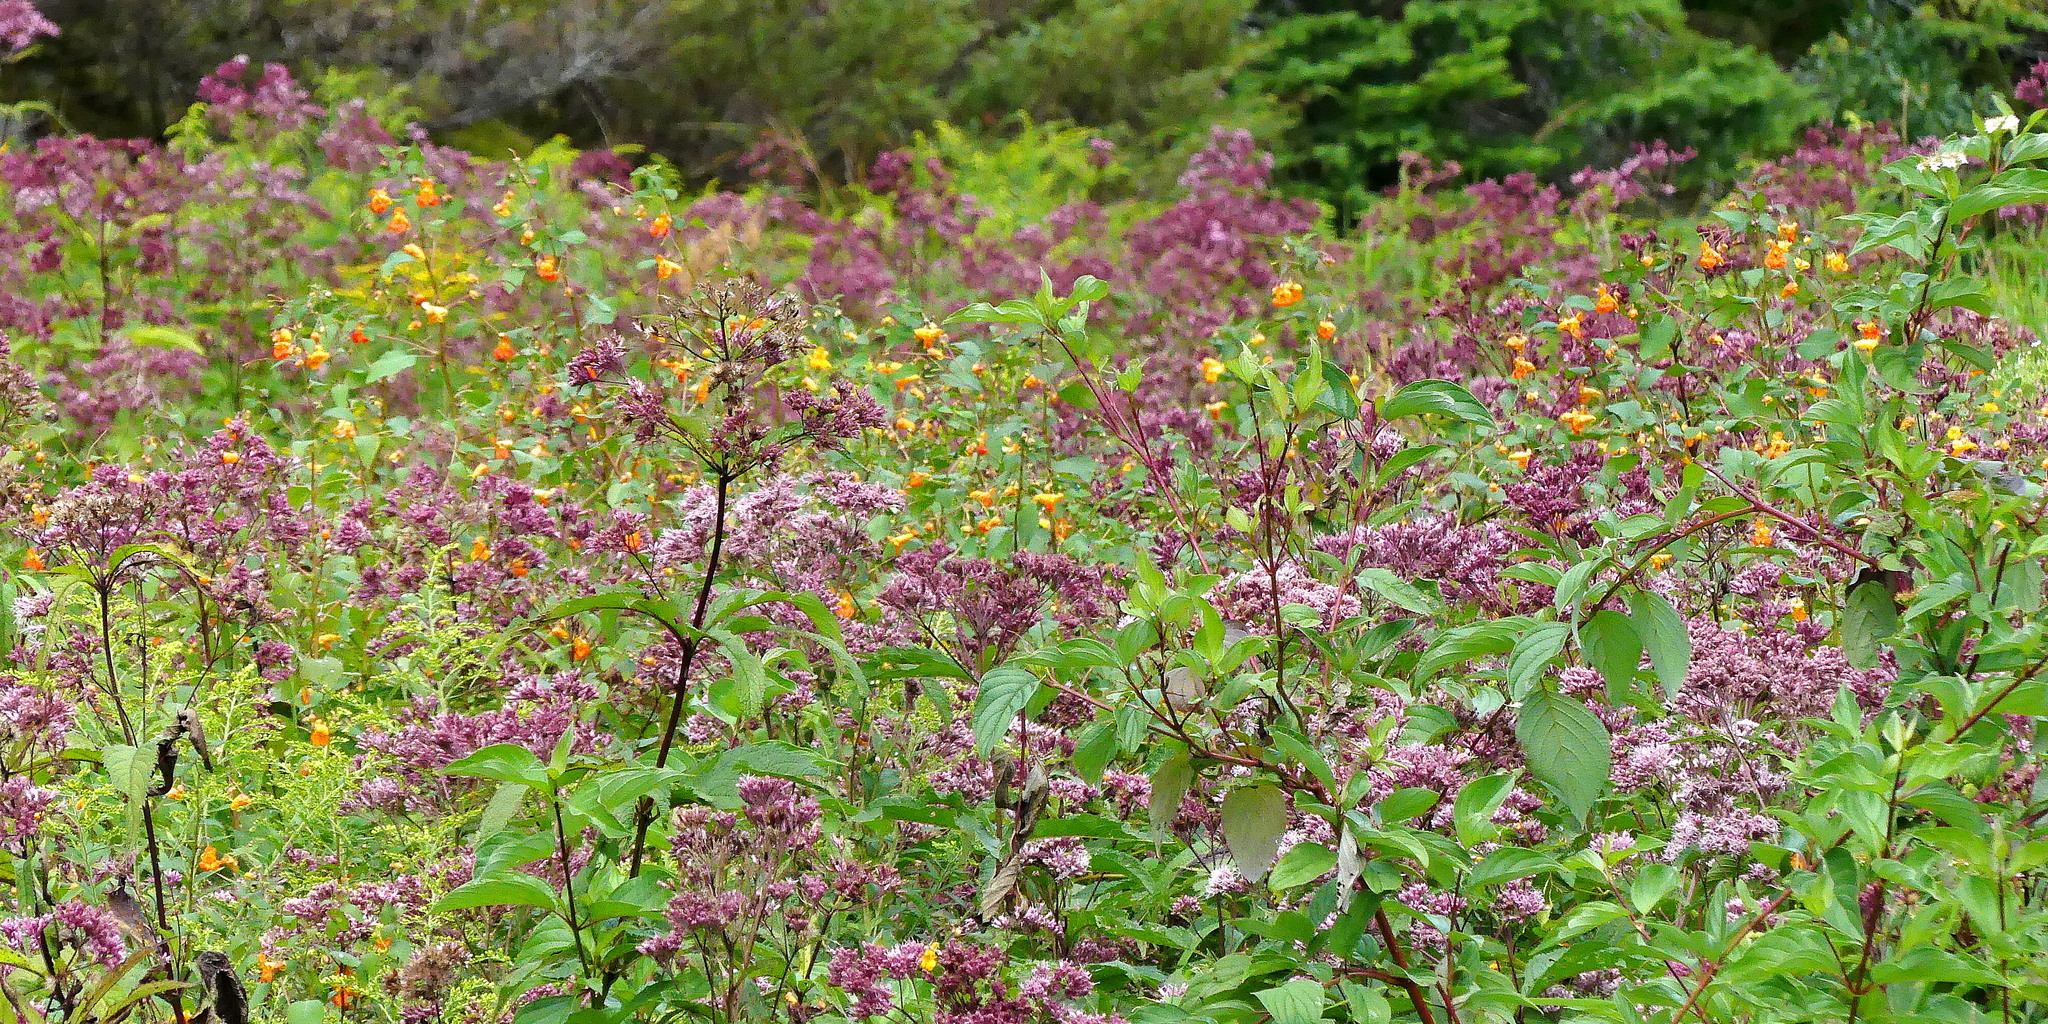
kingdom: Plantae
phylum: Tracheophyta
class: Magnoliopsida
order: Asterales
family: Asteraceae
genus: Eutrochium
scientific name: Eutrochium maculatum
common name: Spotted joe pye weed
